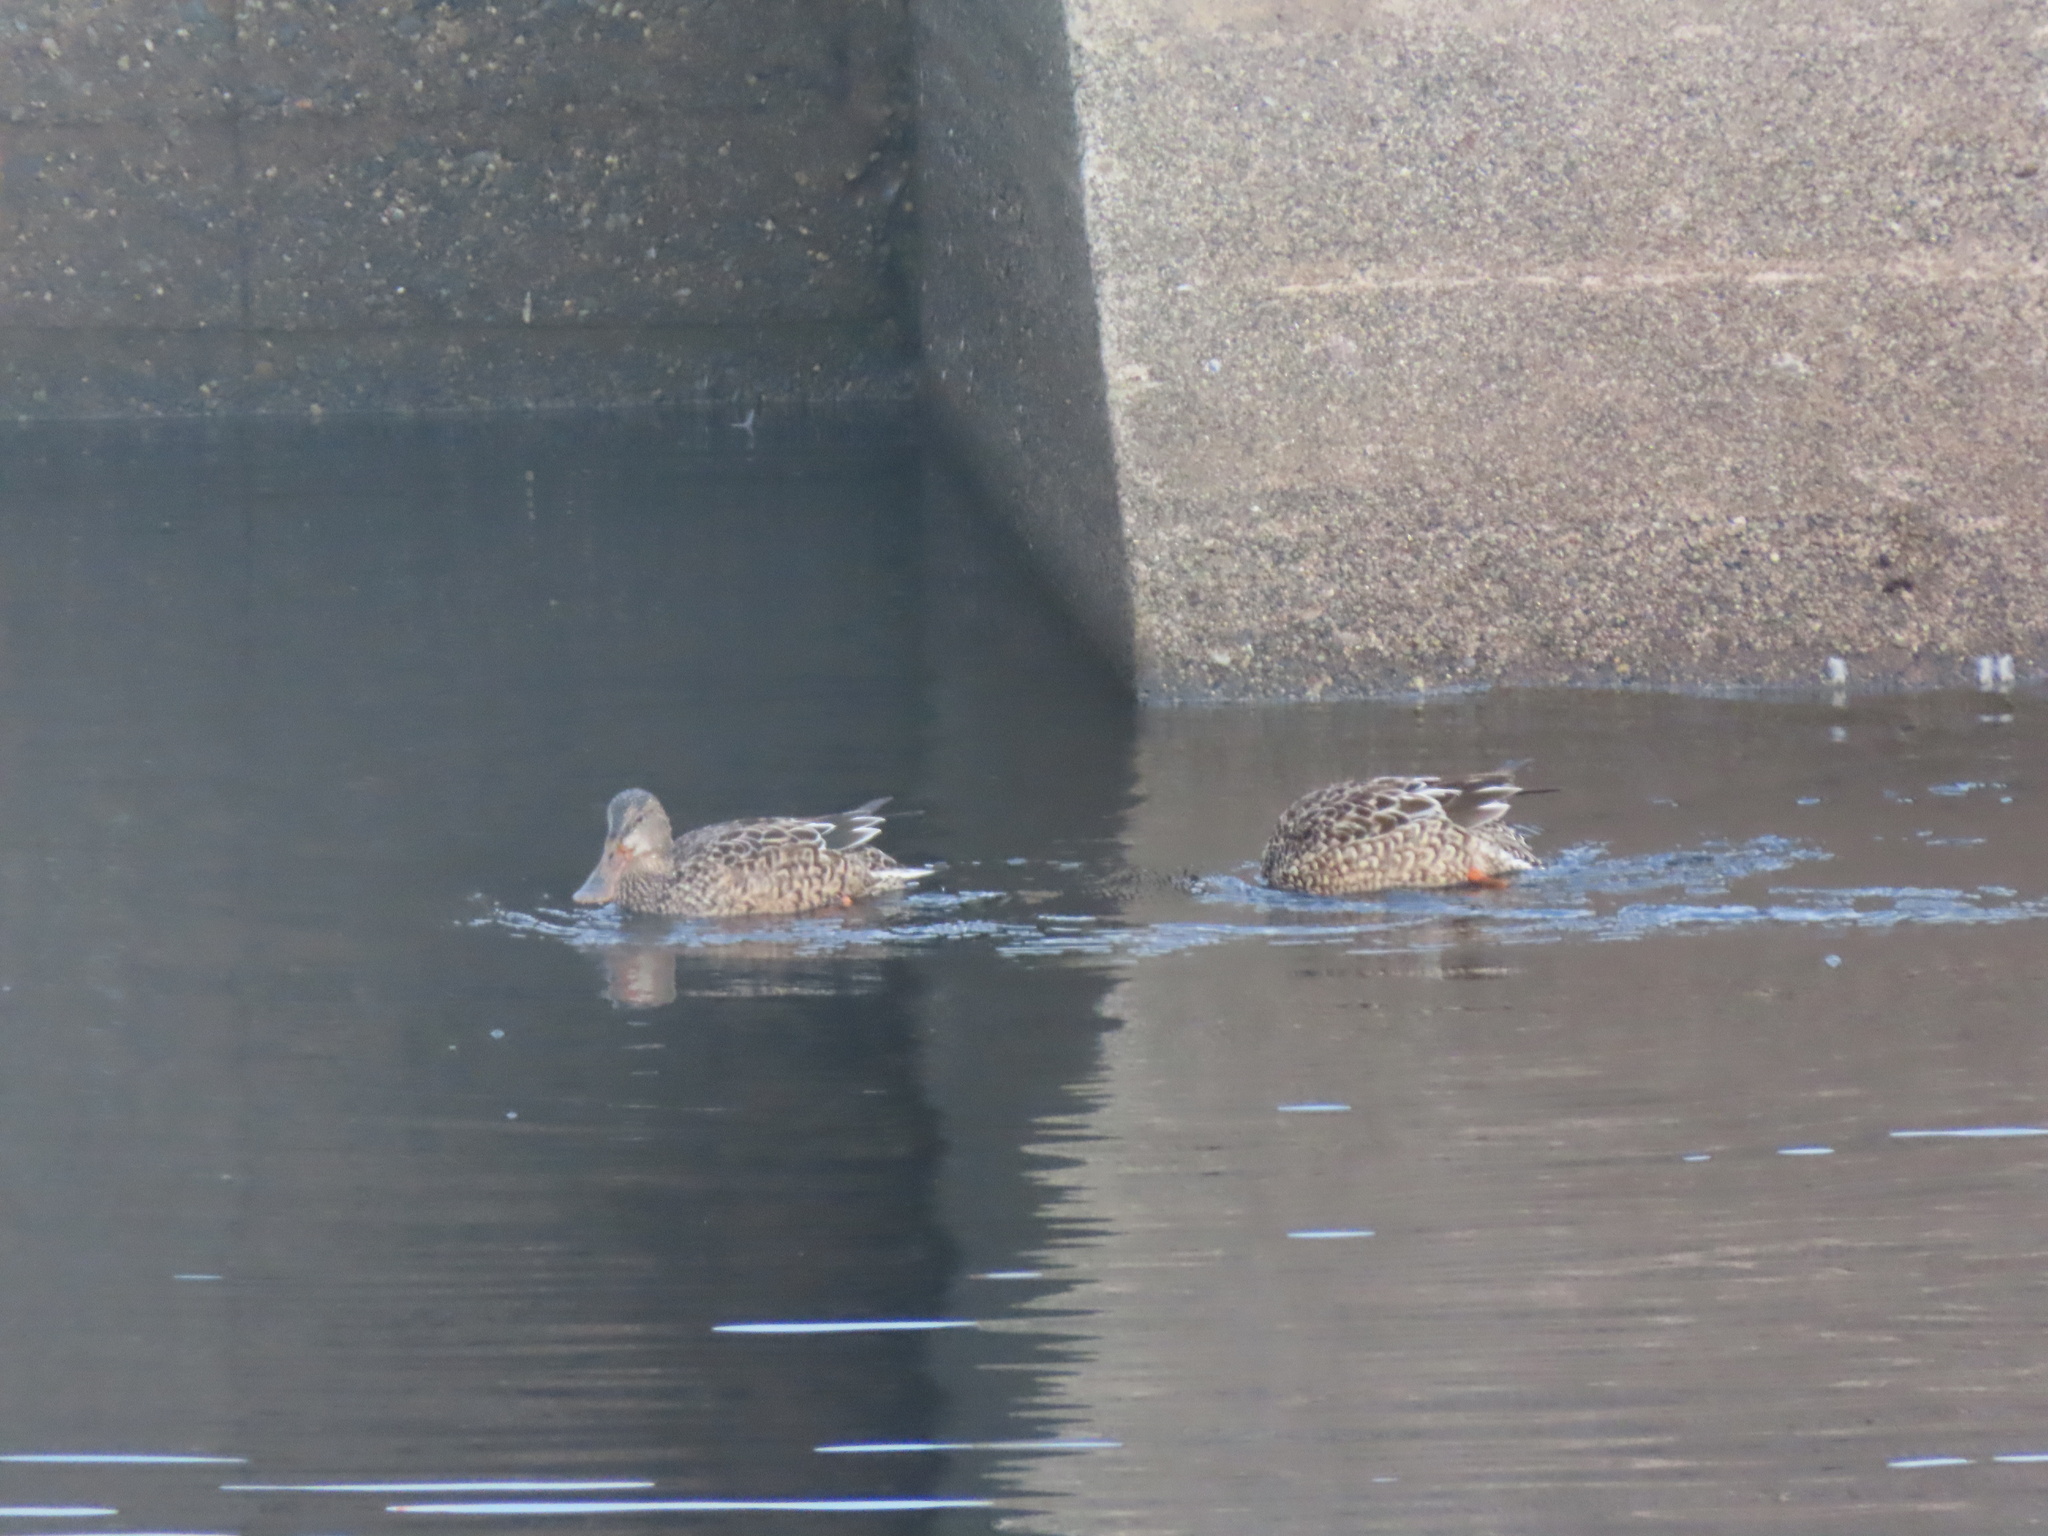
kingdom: Animalia
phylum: Chordata
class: Aves
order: Anseriformes
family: Anatidae
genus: Spatula
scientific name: Spatula clypeata
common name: Northern shoveler
